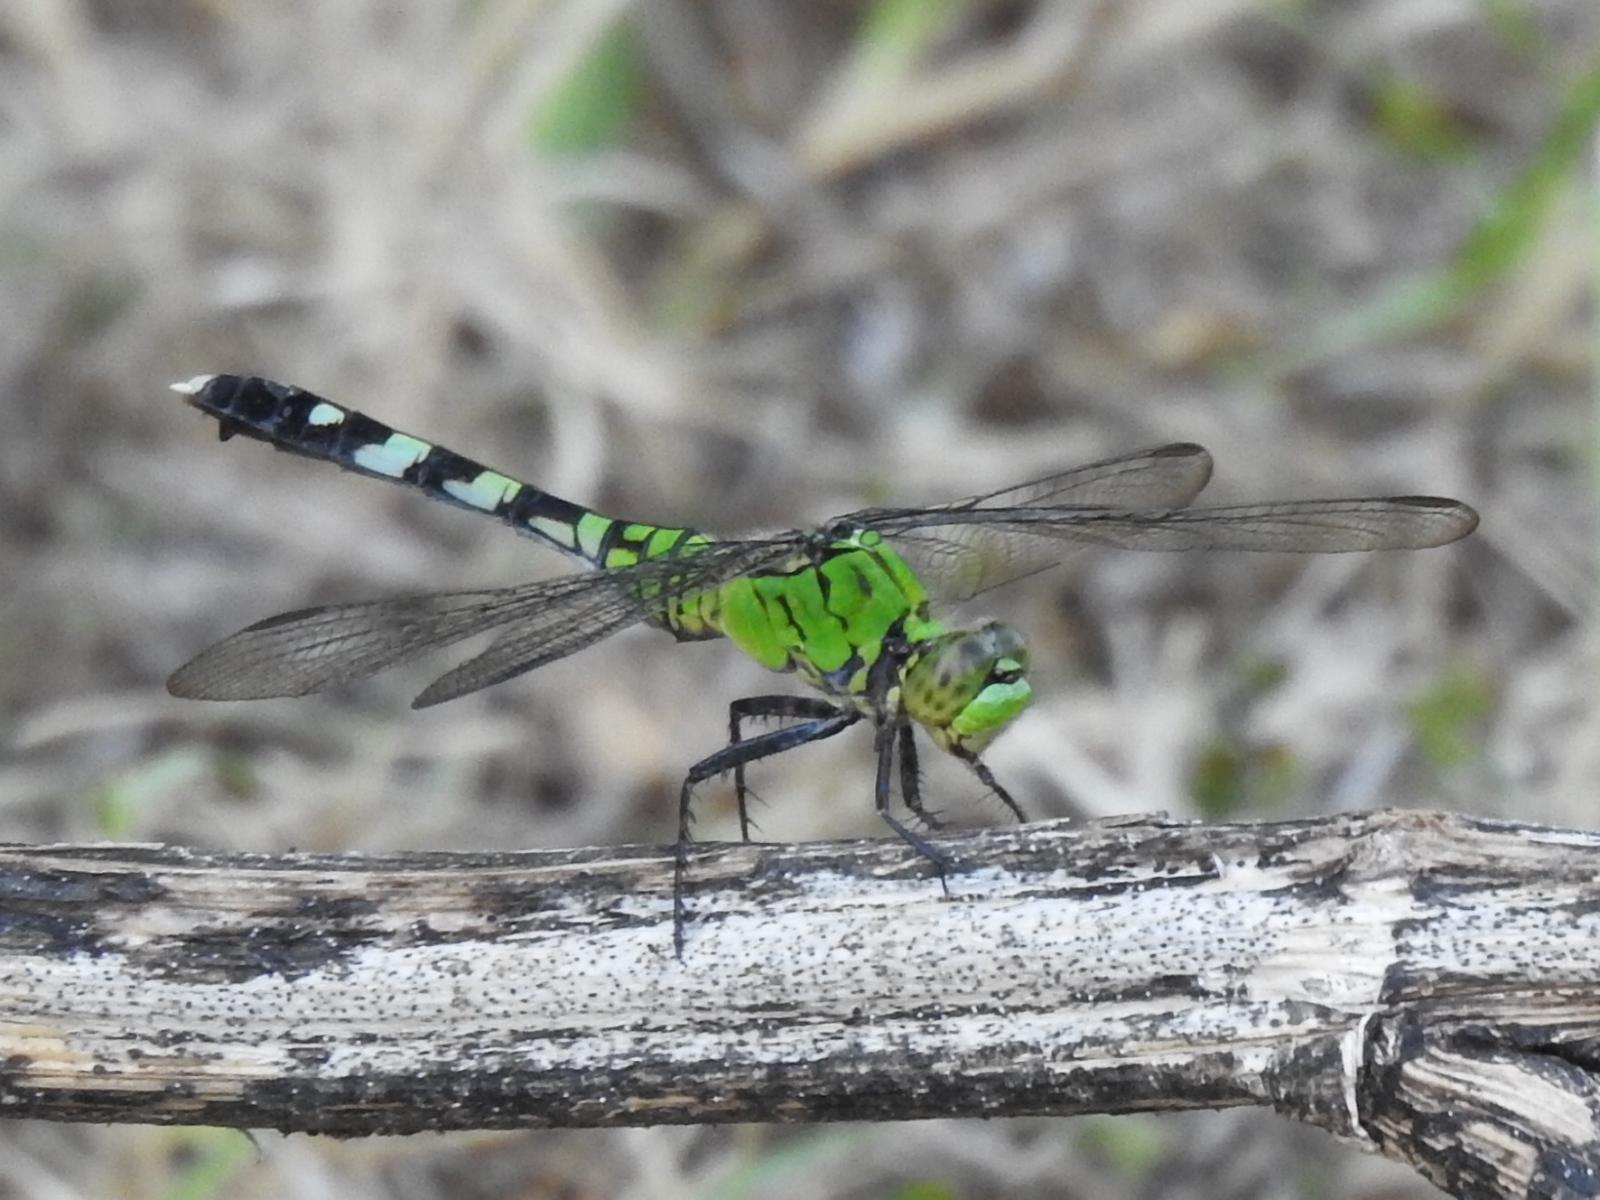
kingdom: Animalia
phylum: Arthropoda
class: Insecta
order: Odonata
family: Libellulidae
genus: Erythemis
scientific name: Erythemis simplicicollis
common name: Eastern pondhawk
